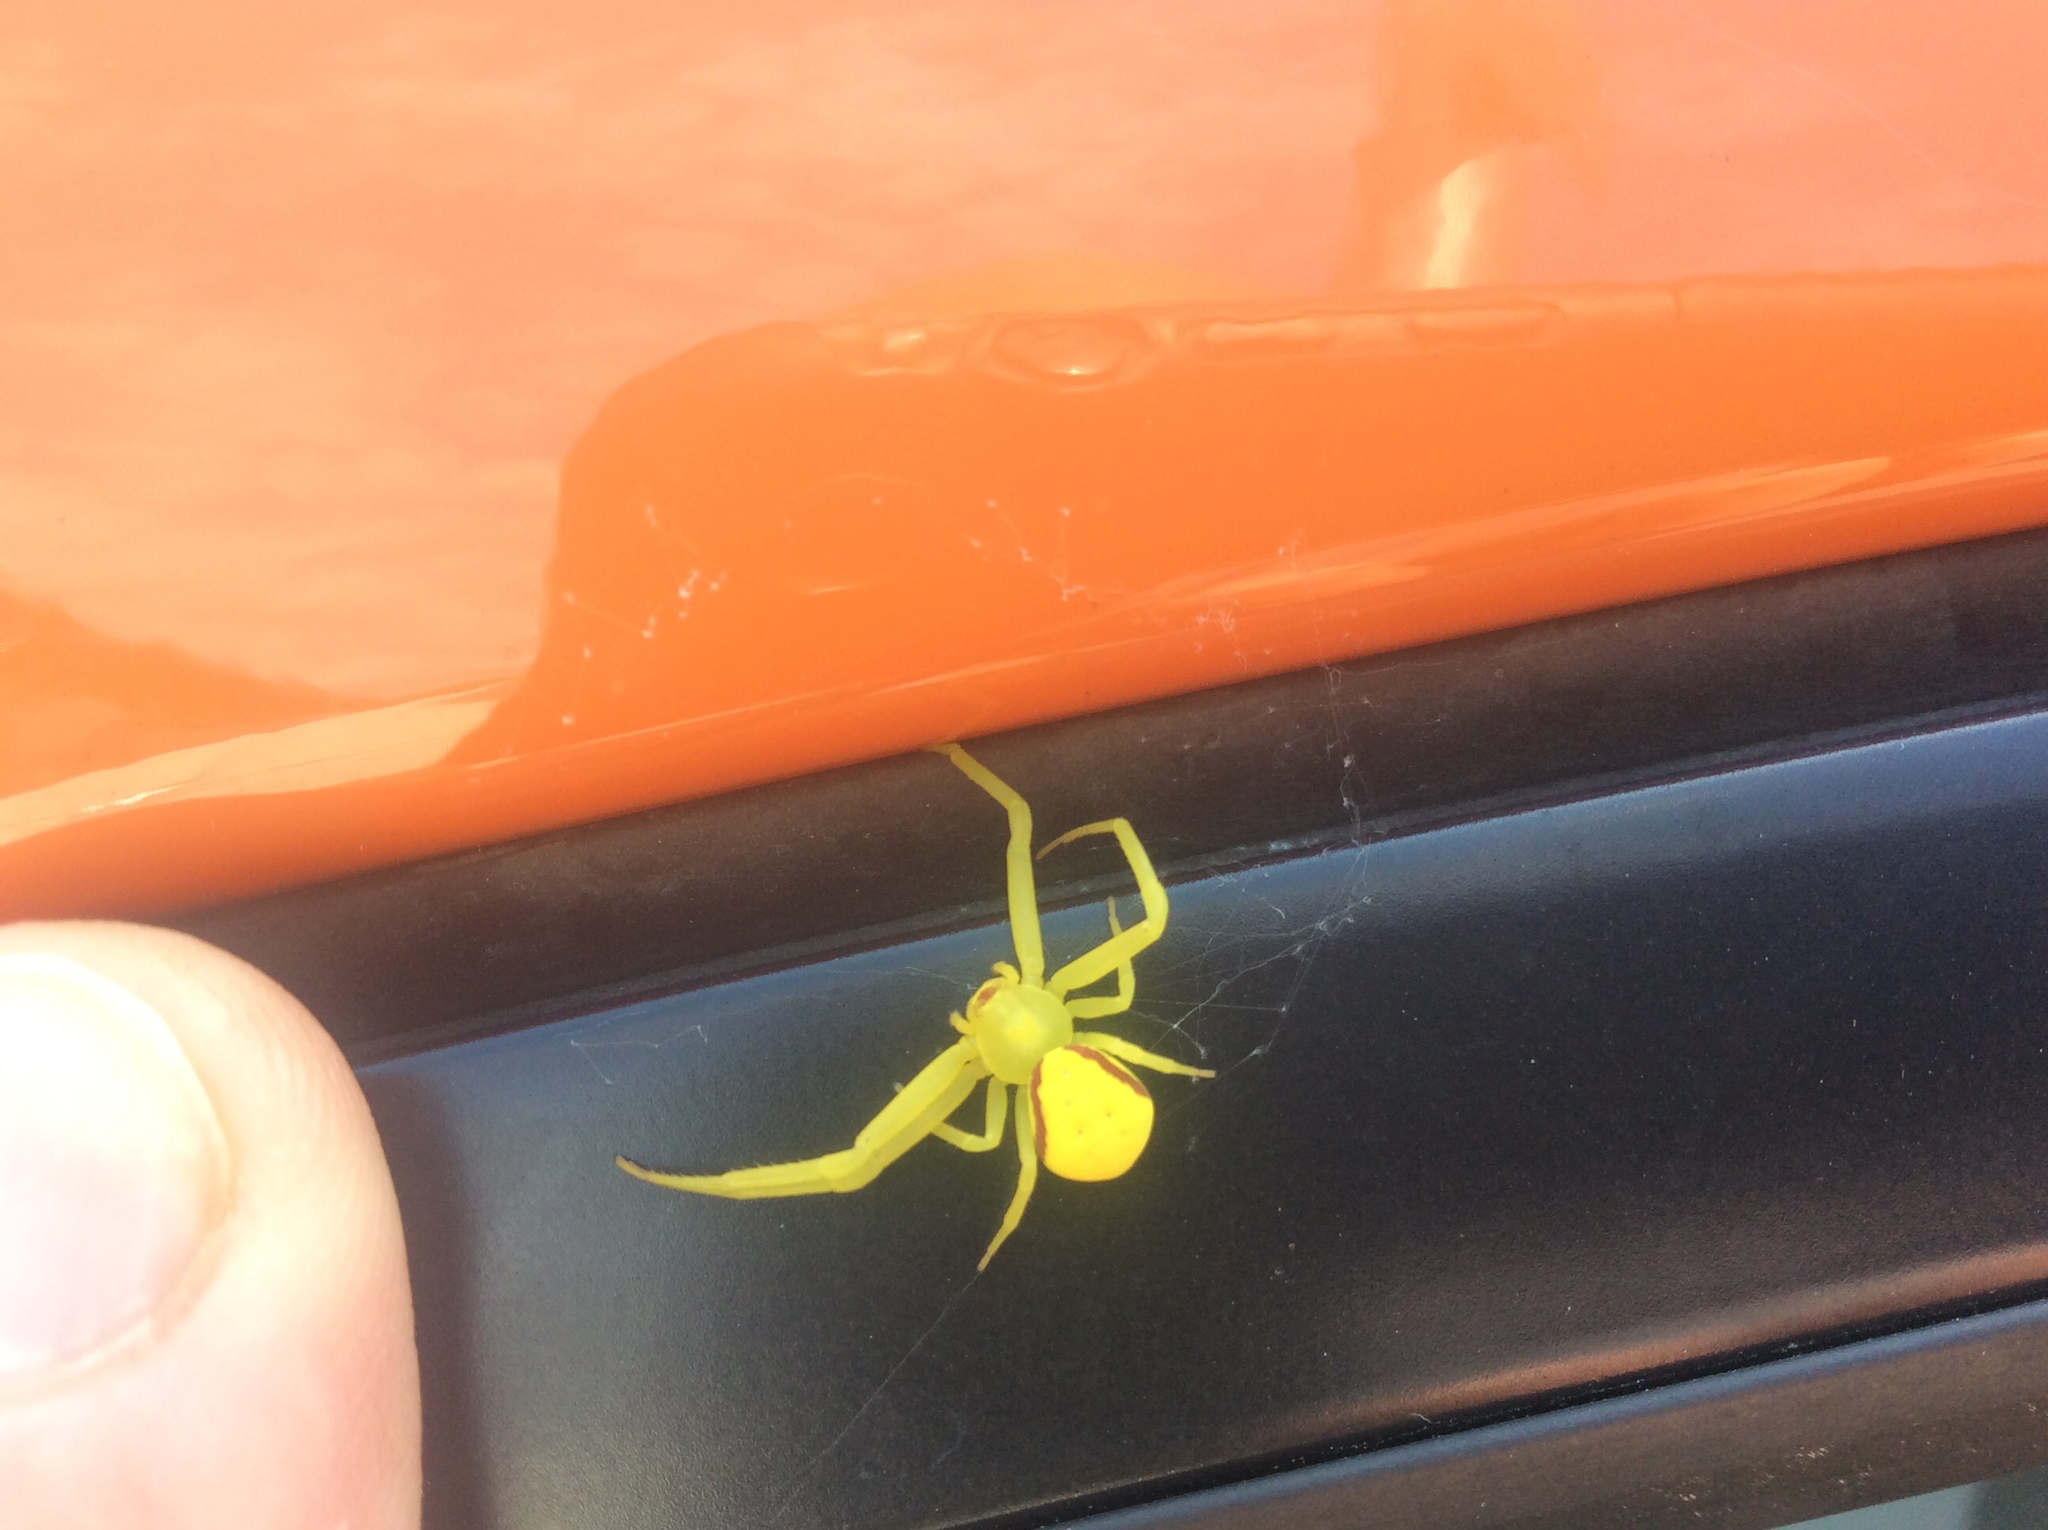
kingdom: Animalia
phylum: Arthropoda
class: Arachnida
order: Araneae
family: Thomisidae
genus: Misumena
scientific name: Misumena vatia
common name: Goldenrod crab spider
